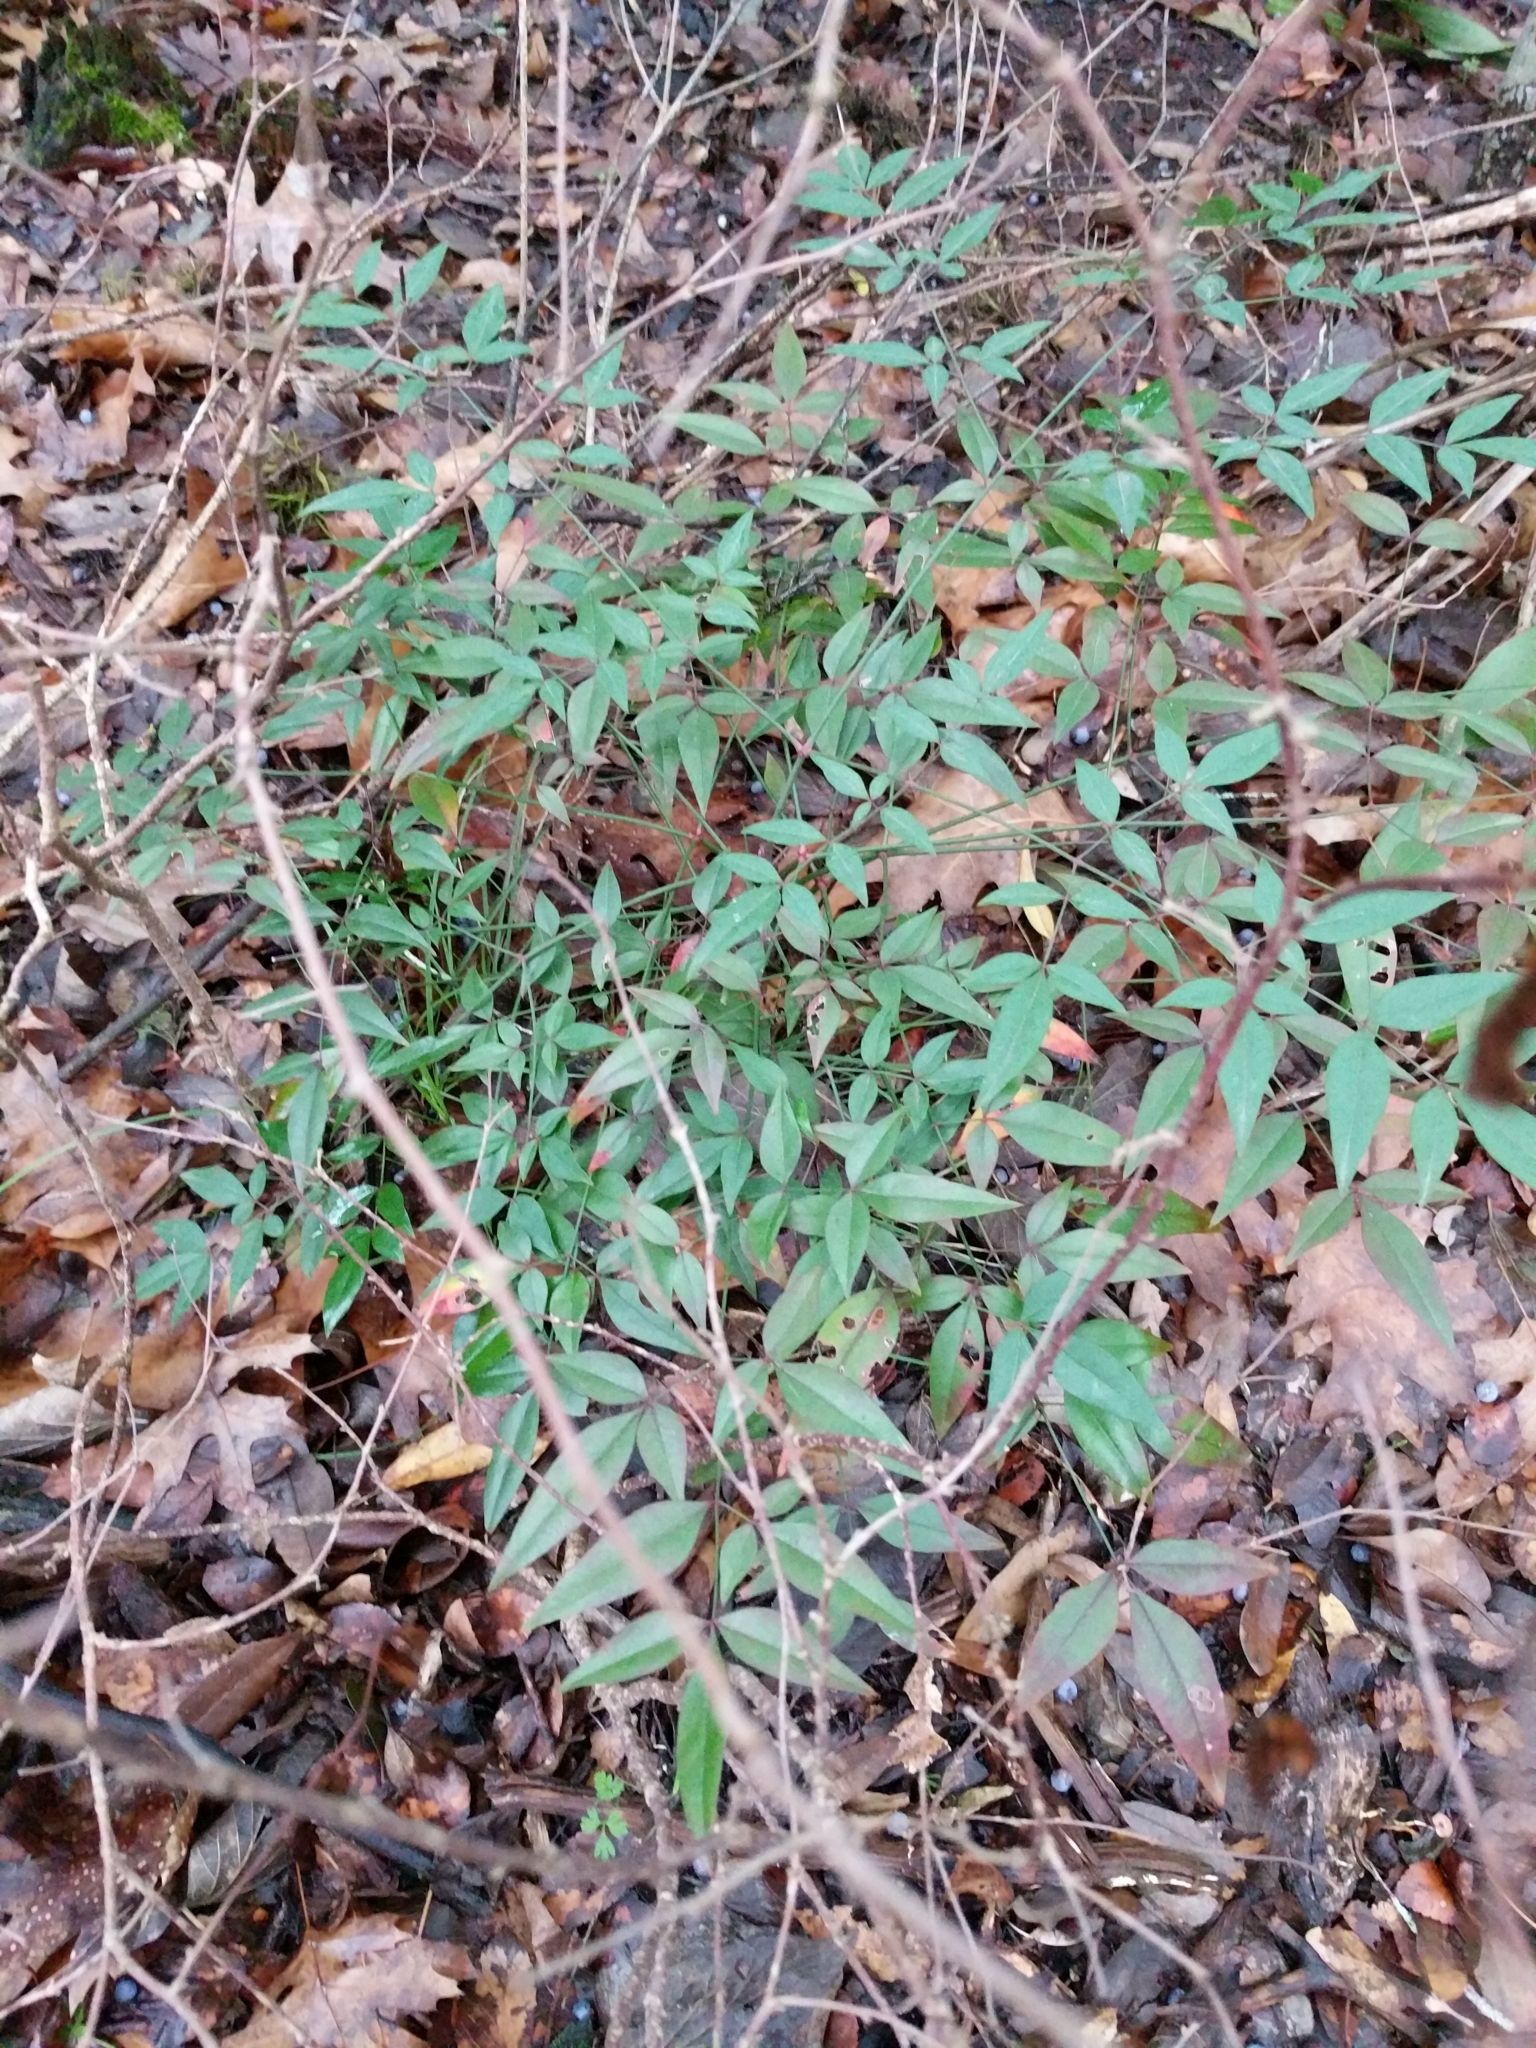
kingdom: Plantae
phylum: Tracheophyta
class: Magnoliopsida
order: Ranunculales
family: Berberidaceae
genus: Nandina
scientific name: Nandina domestica
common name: Sacred bamboo
